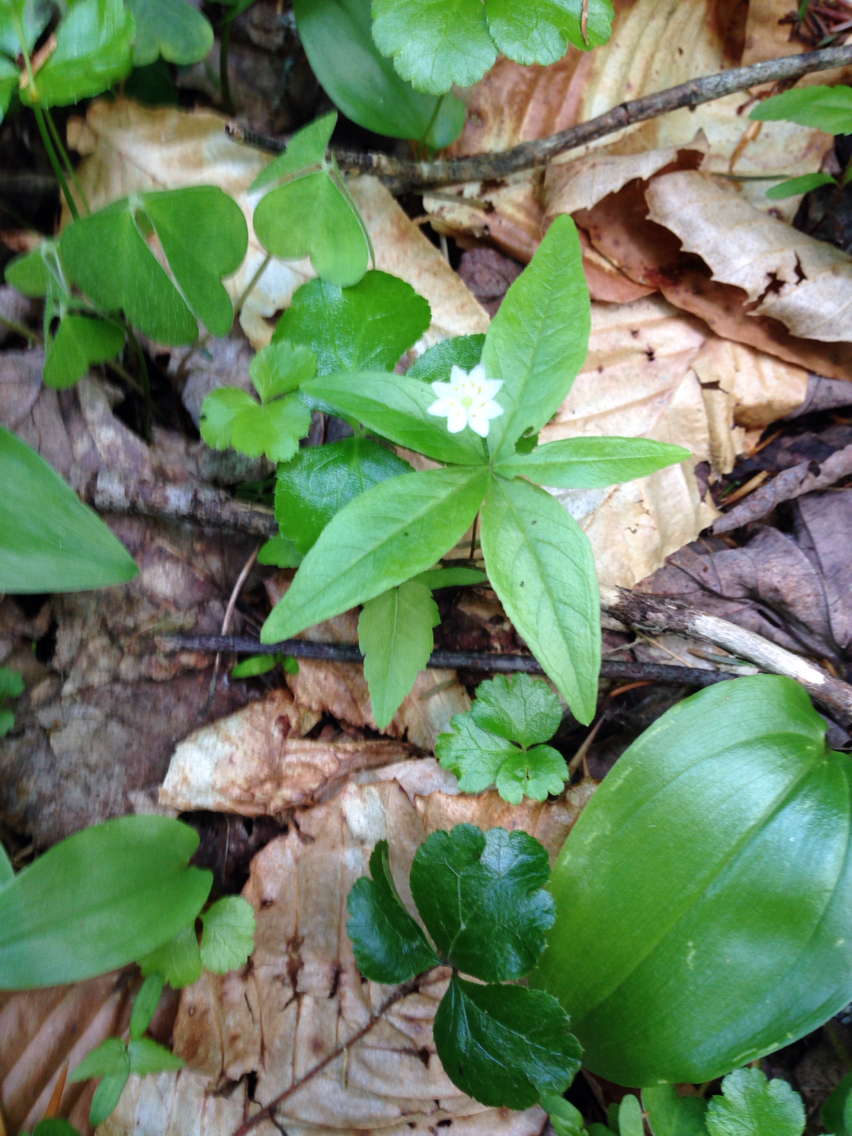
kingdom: Plantae
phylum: Tracheophyta
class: Magnoliopsida
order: Ericales
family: Primulaceae
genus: Lysimachia
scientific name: Lysimachia borealis
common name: American starflower
